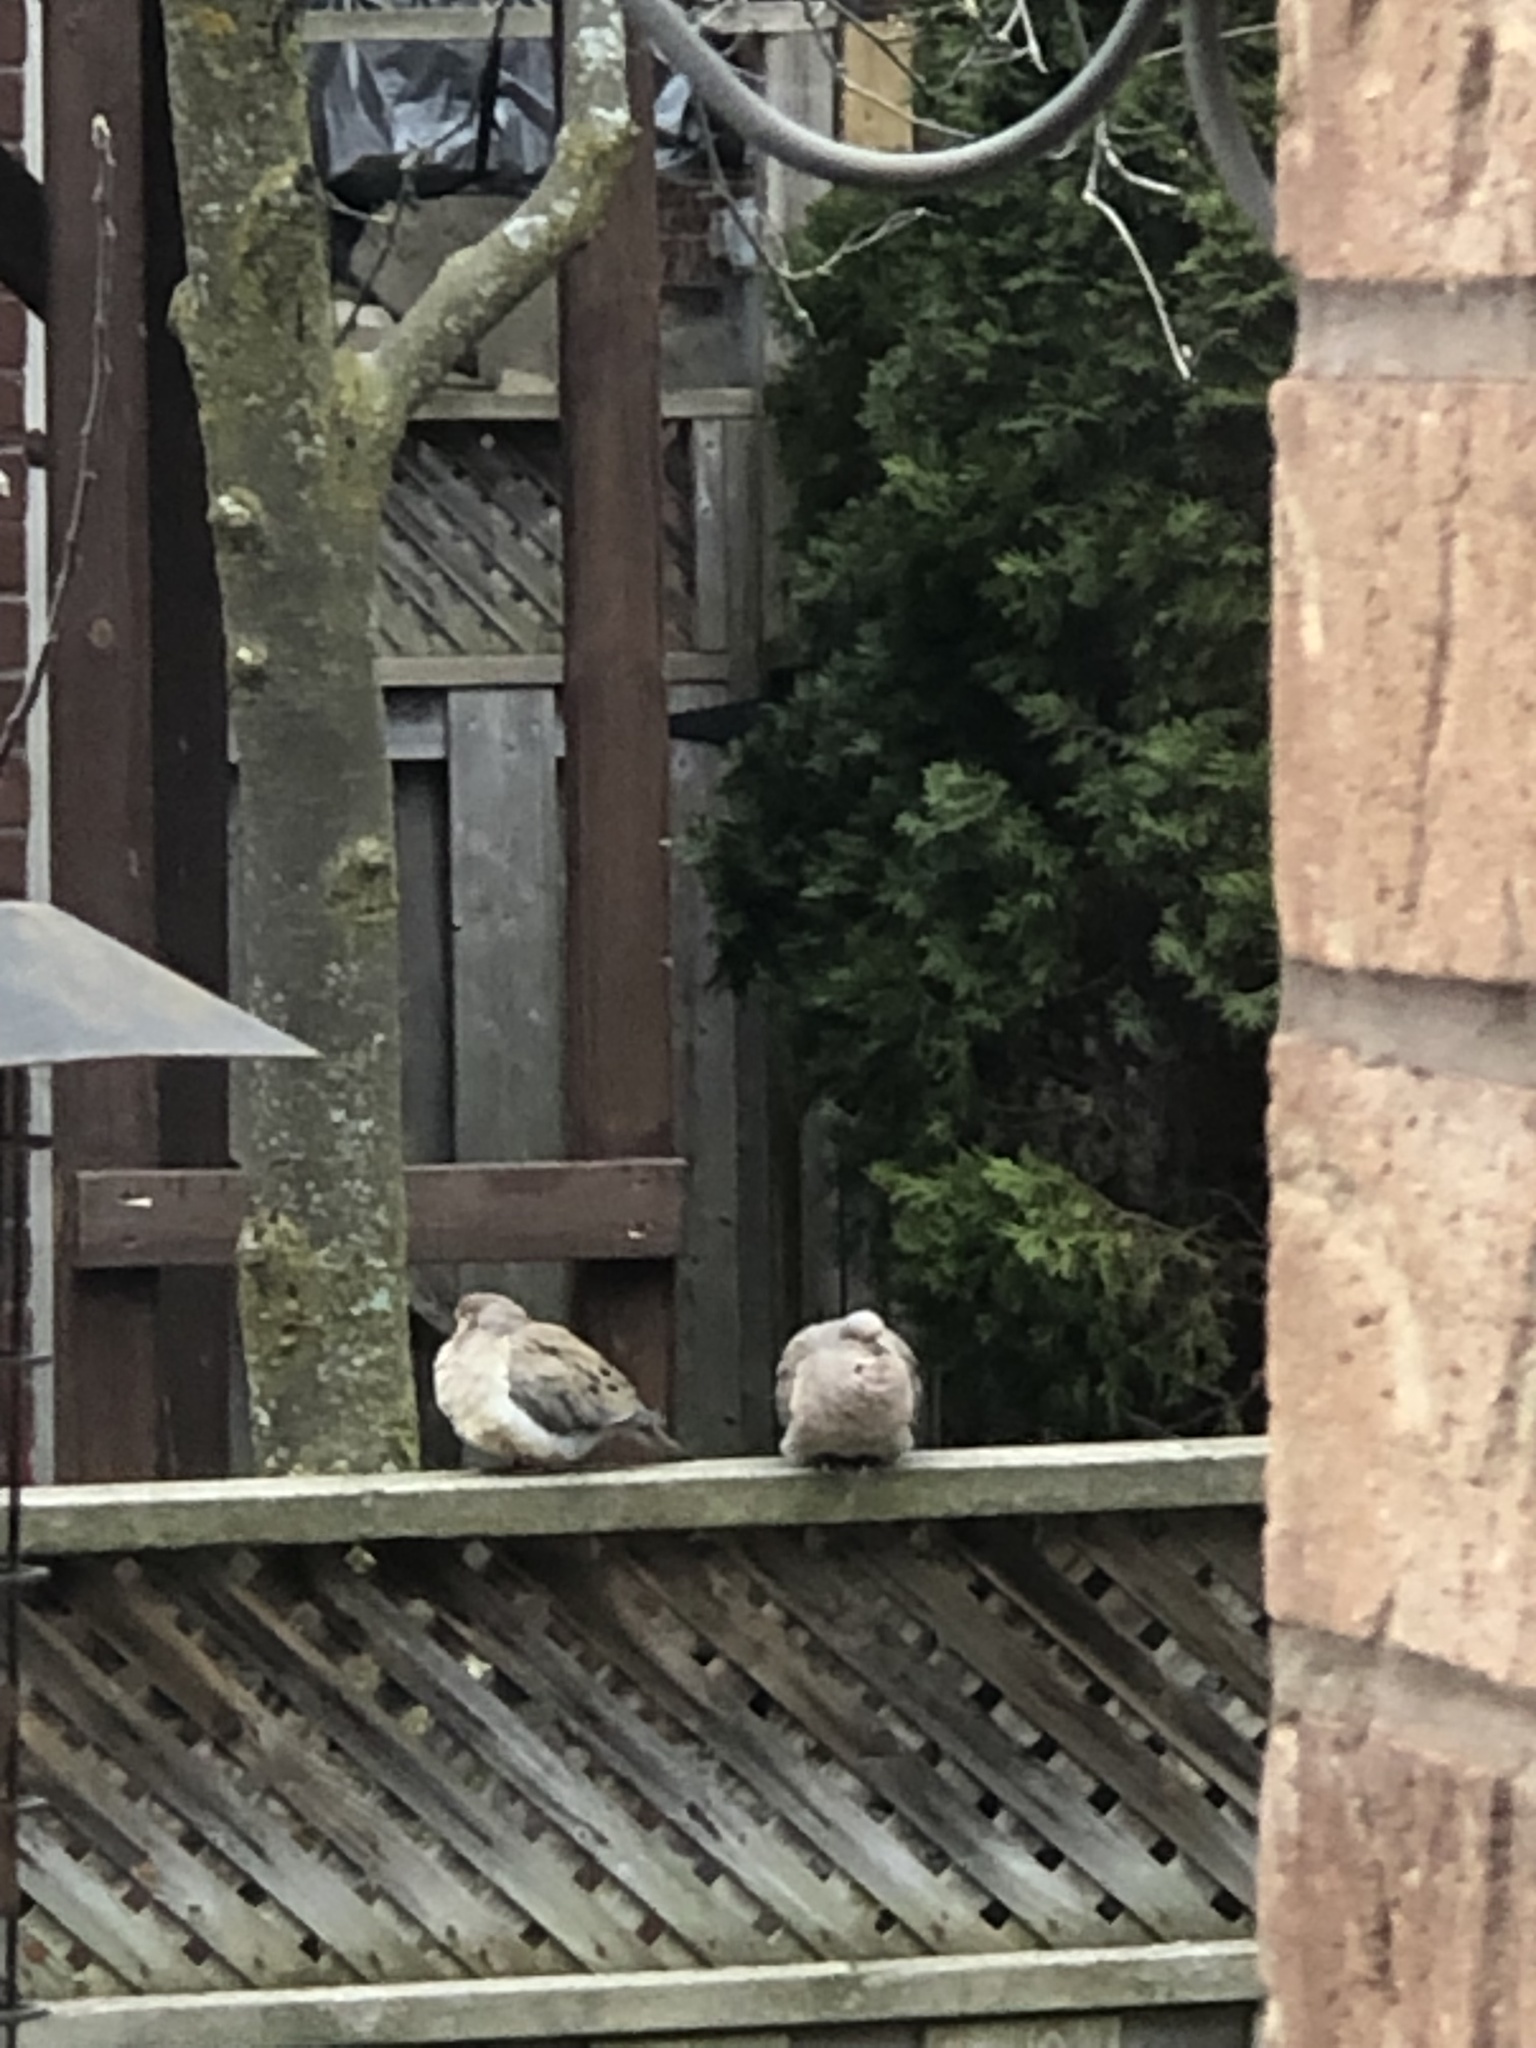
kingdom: Animalia
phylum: Chordata
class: Aves
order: Columbiformes
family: Columbidae
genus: Zenaida
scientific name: Zenaida macroura
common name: Mourning dove
